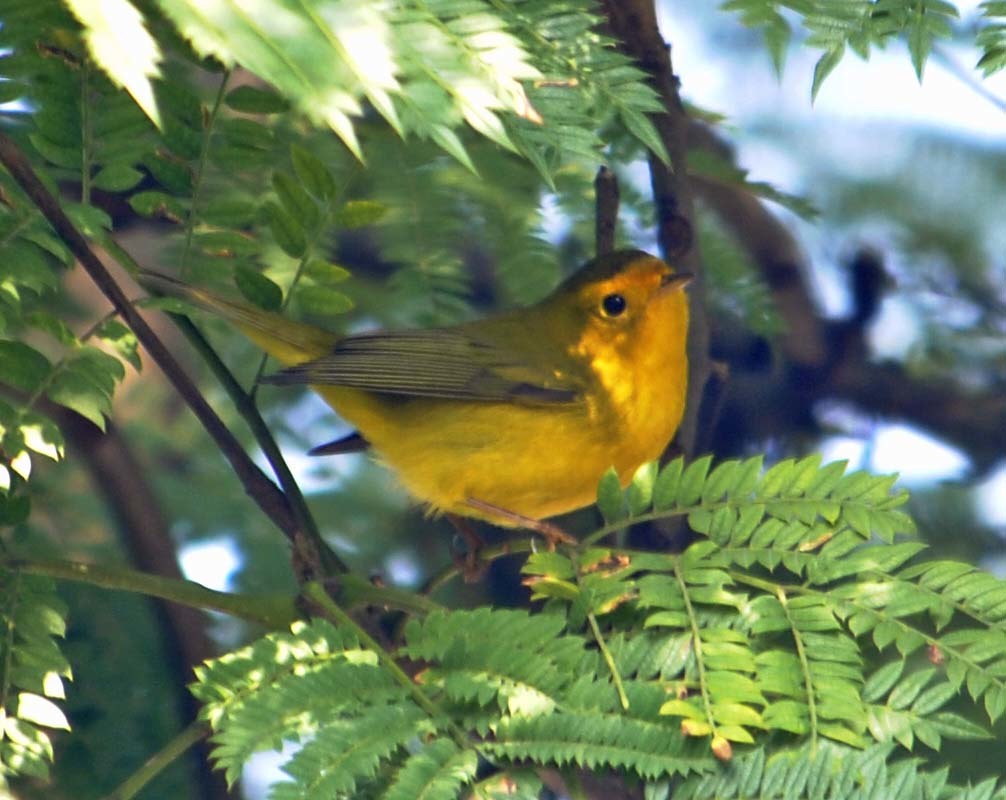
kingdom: Animalia
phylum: Chordata
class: Aves
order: Passeriformes
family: Parulidae
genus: Cardellina
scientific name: Cardellina pusilla
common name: Wilson's warbler
